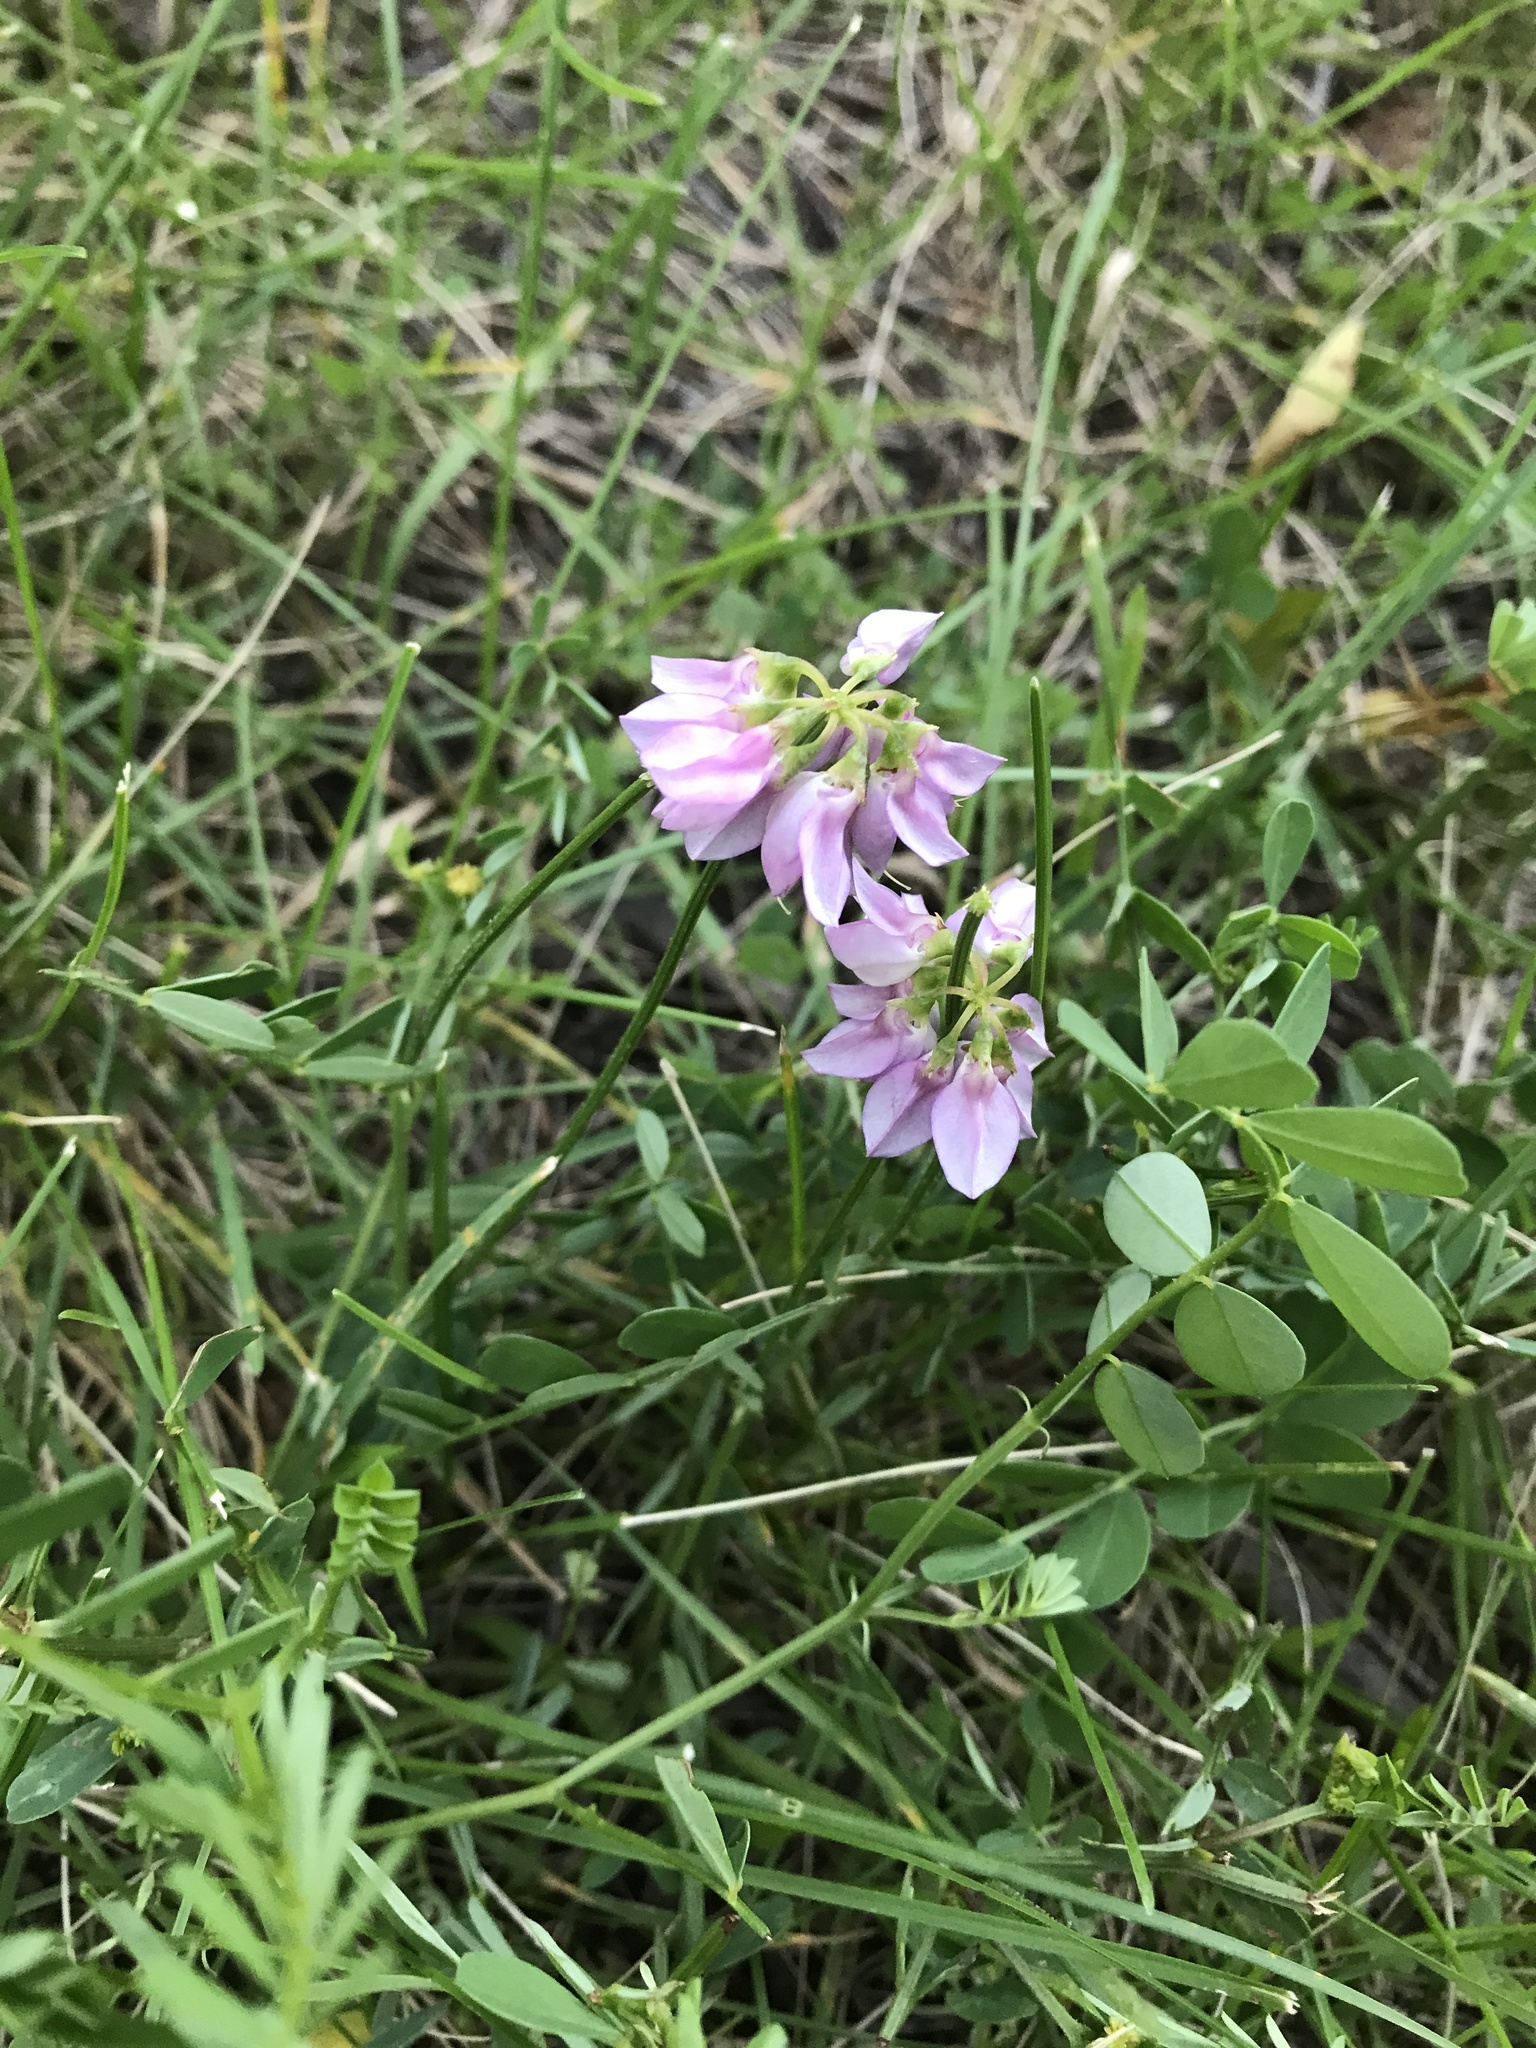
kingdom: Plantae
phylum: Tracheophyta
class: Magnoliopsida
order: Fabales
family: Fabaceae
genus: Coronilla
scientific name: Coronilla varia
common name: Crownvetch
